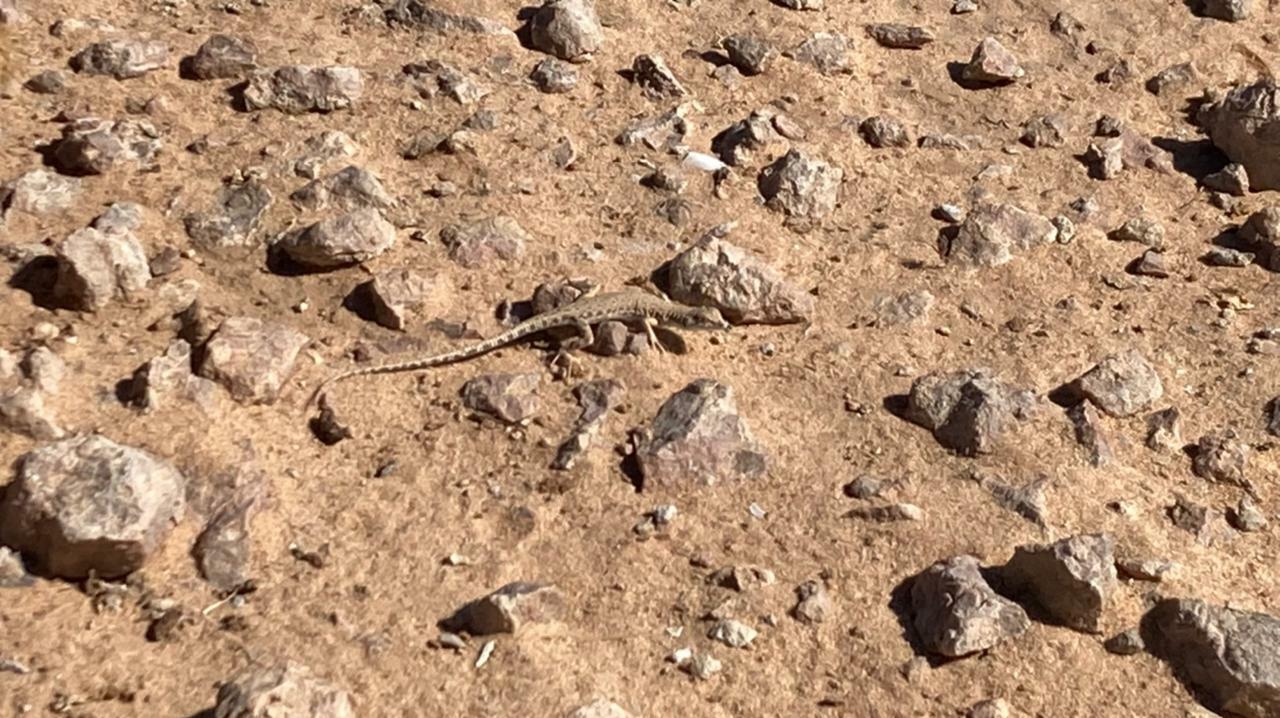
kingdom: Animalia
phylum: Chordata
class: Squamata
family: Lacertidae
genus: Mesalina
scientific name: Mesalina brevirostris
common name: Blanford's short-nosed desert lizard
